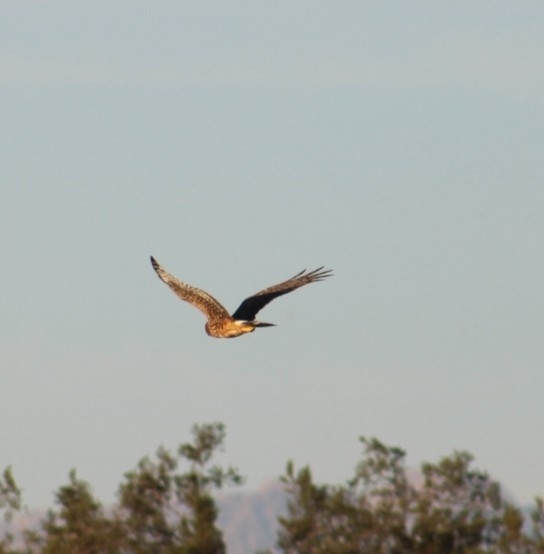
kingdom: Animalia
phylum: Chordata
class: Aves
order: Accipitriformes
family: Accipitridae
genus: Circus
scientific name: Circus cyaneus
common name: Hen harrier
